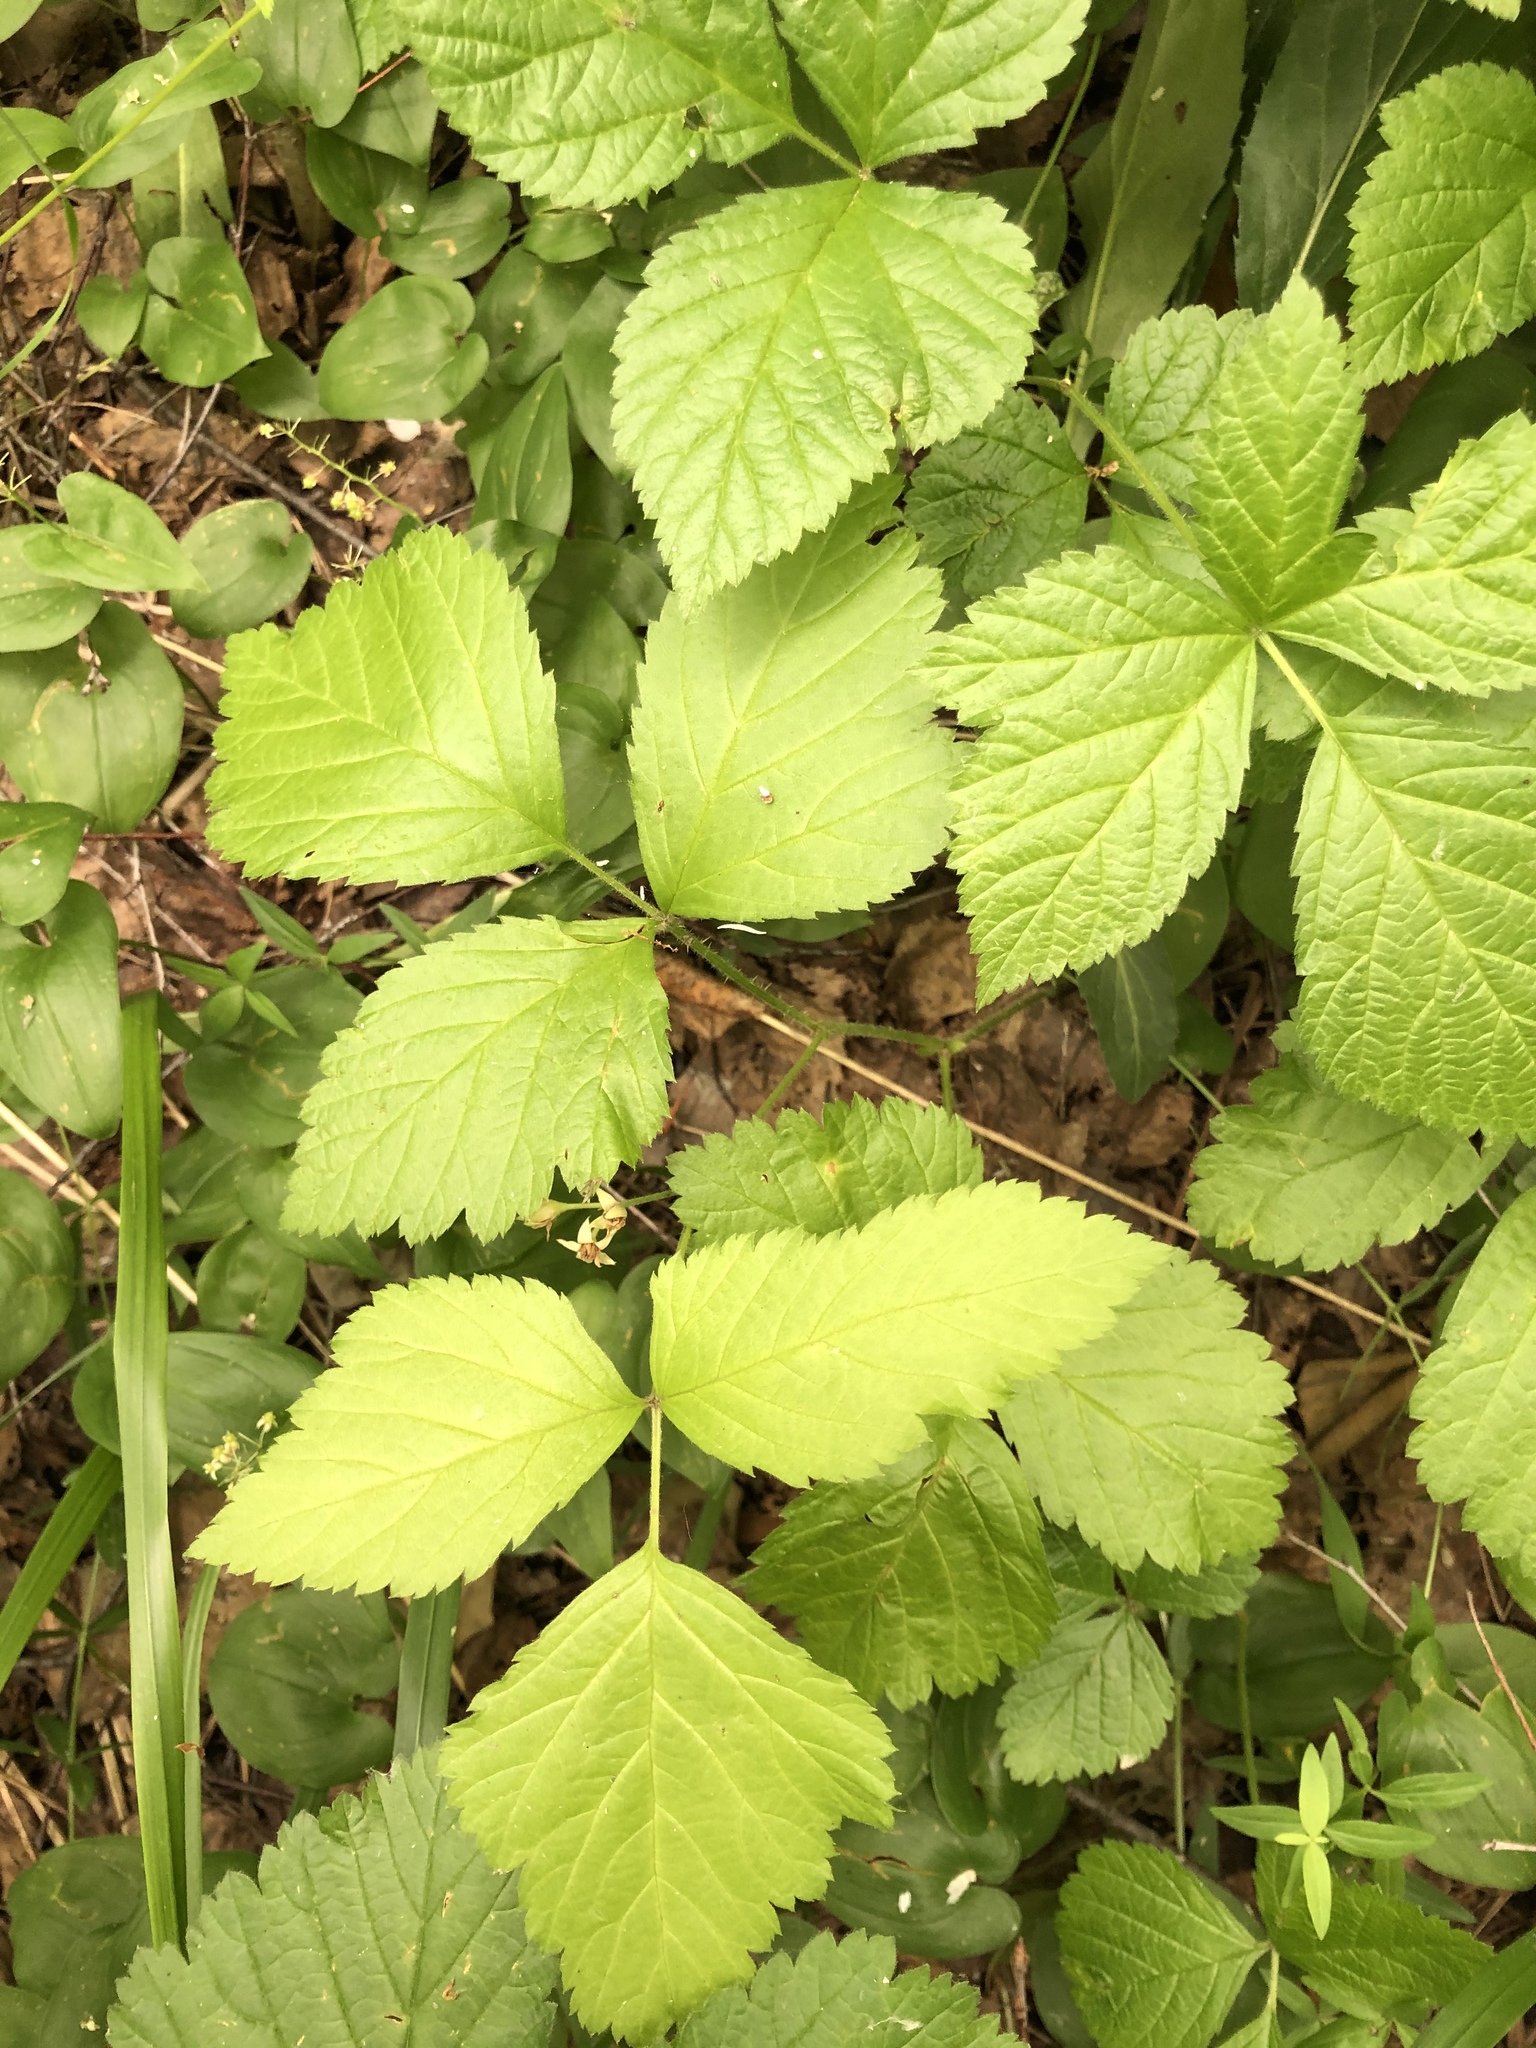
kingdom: Plantae
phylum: Tracheophyta
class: Magnoliopsida
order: Rosales
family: Rosaceae
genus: Rubus
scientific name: Rubus saxatilis
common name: Stone bramble
